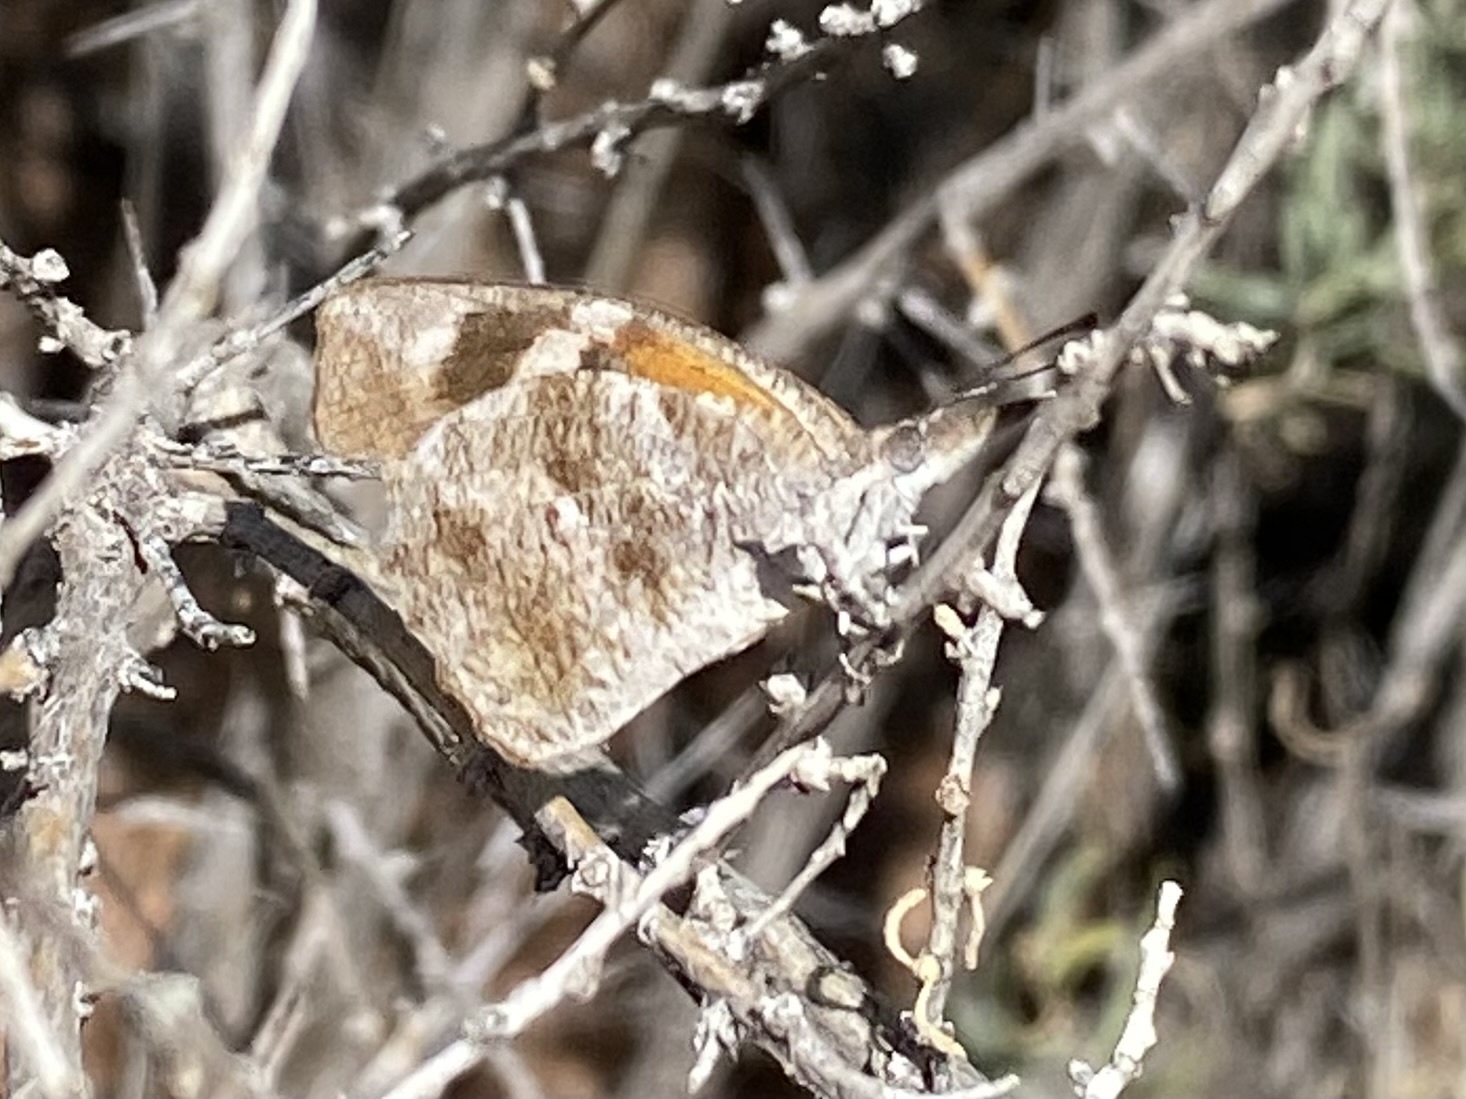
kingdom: Animalia
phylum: Arthropoda
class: Insecta
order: Lepidoptera
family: Nymphalidae
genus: Libytheana
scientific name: Libytheana carinenta
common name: American snout
